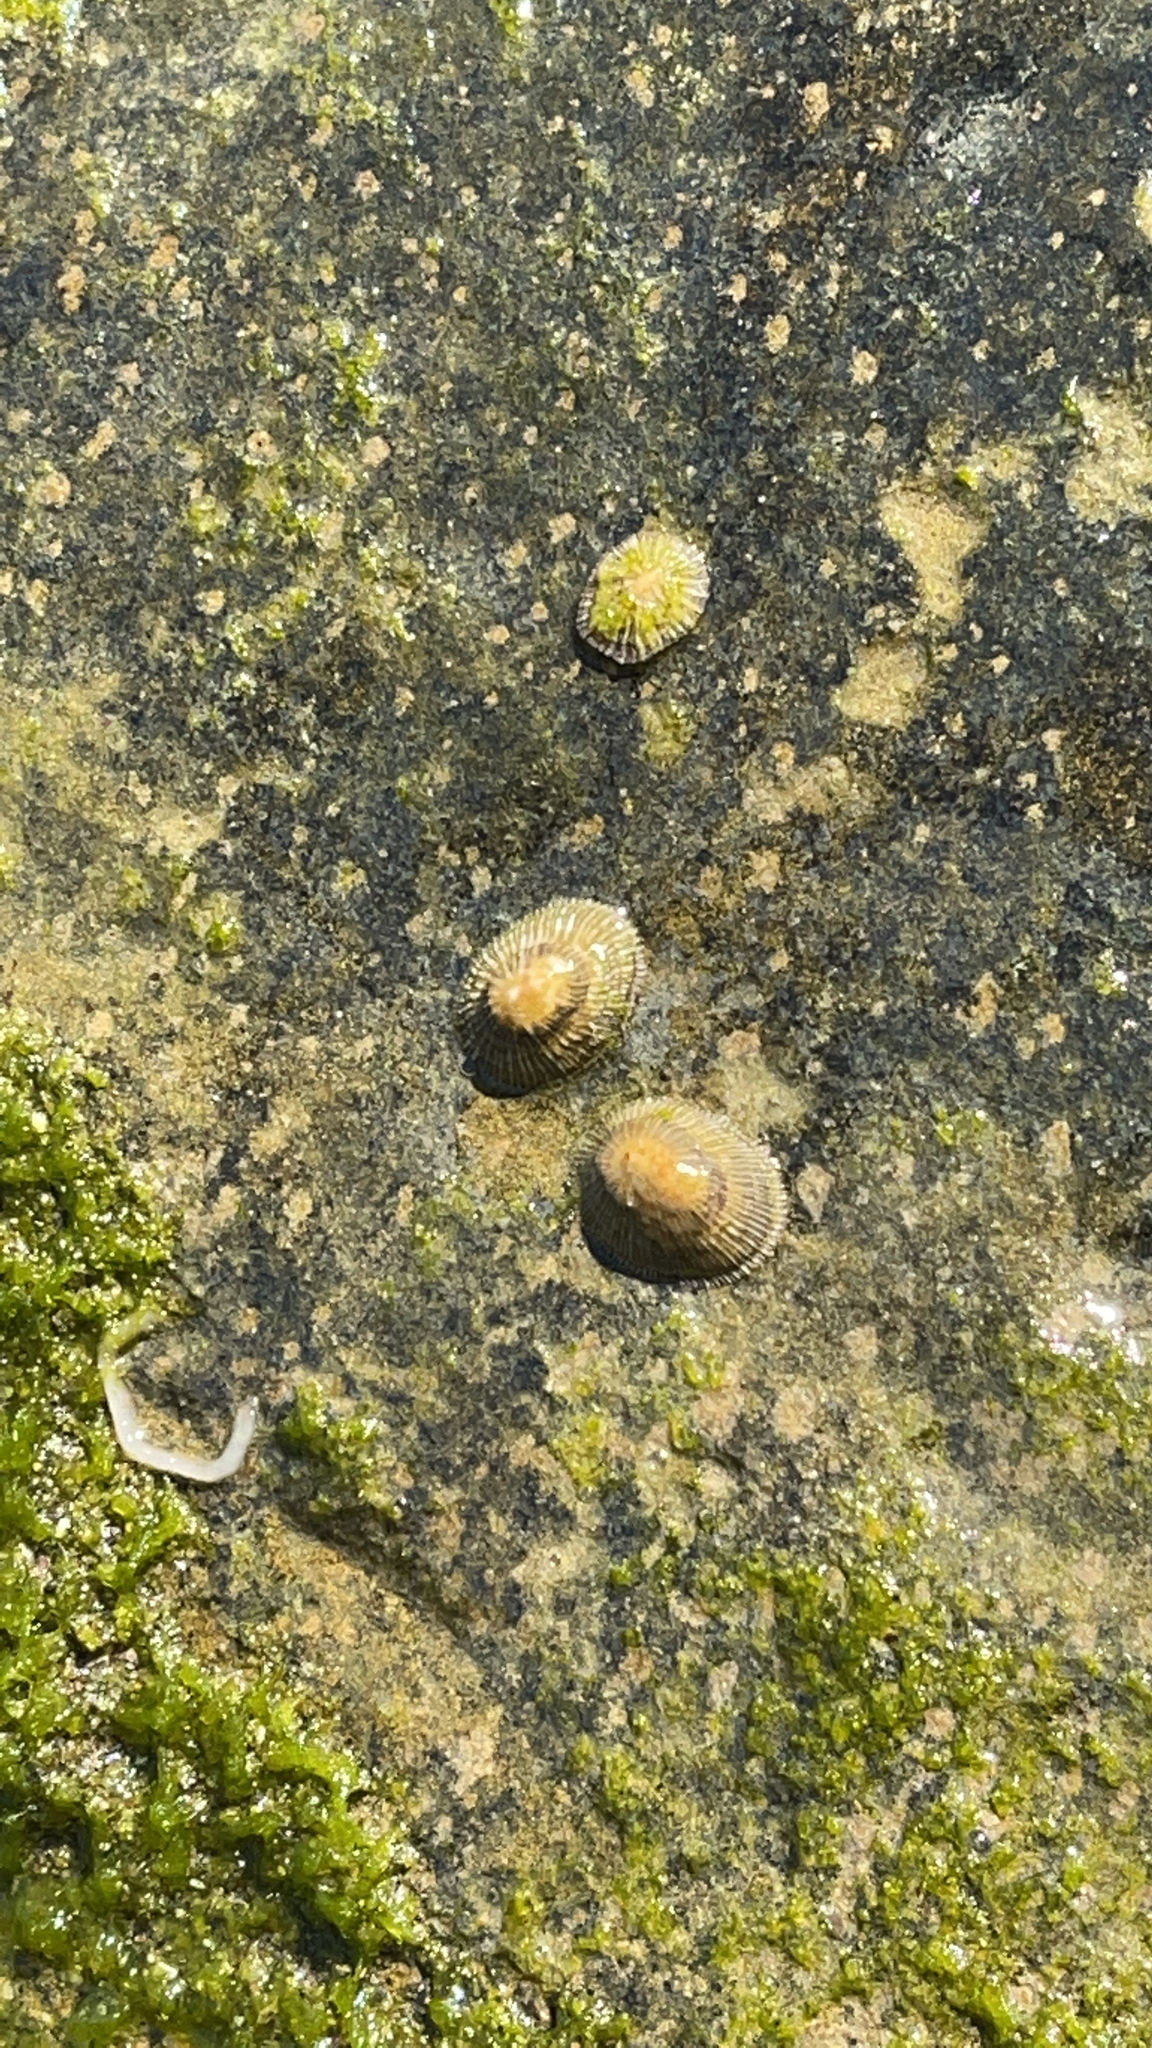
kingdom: Animalia
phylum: Mollusca
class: Gastropoda
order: Siphonariida
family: Siphonariidae
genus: Siphonaria
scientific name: Siphonaria pectinata
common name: Striped false limpet
